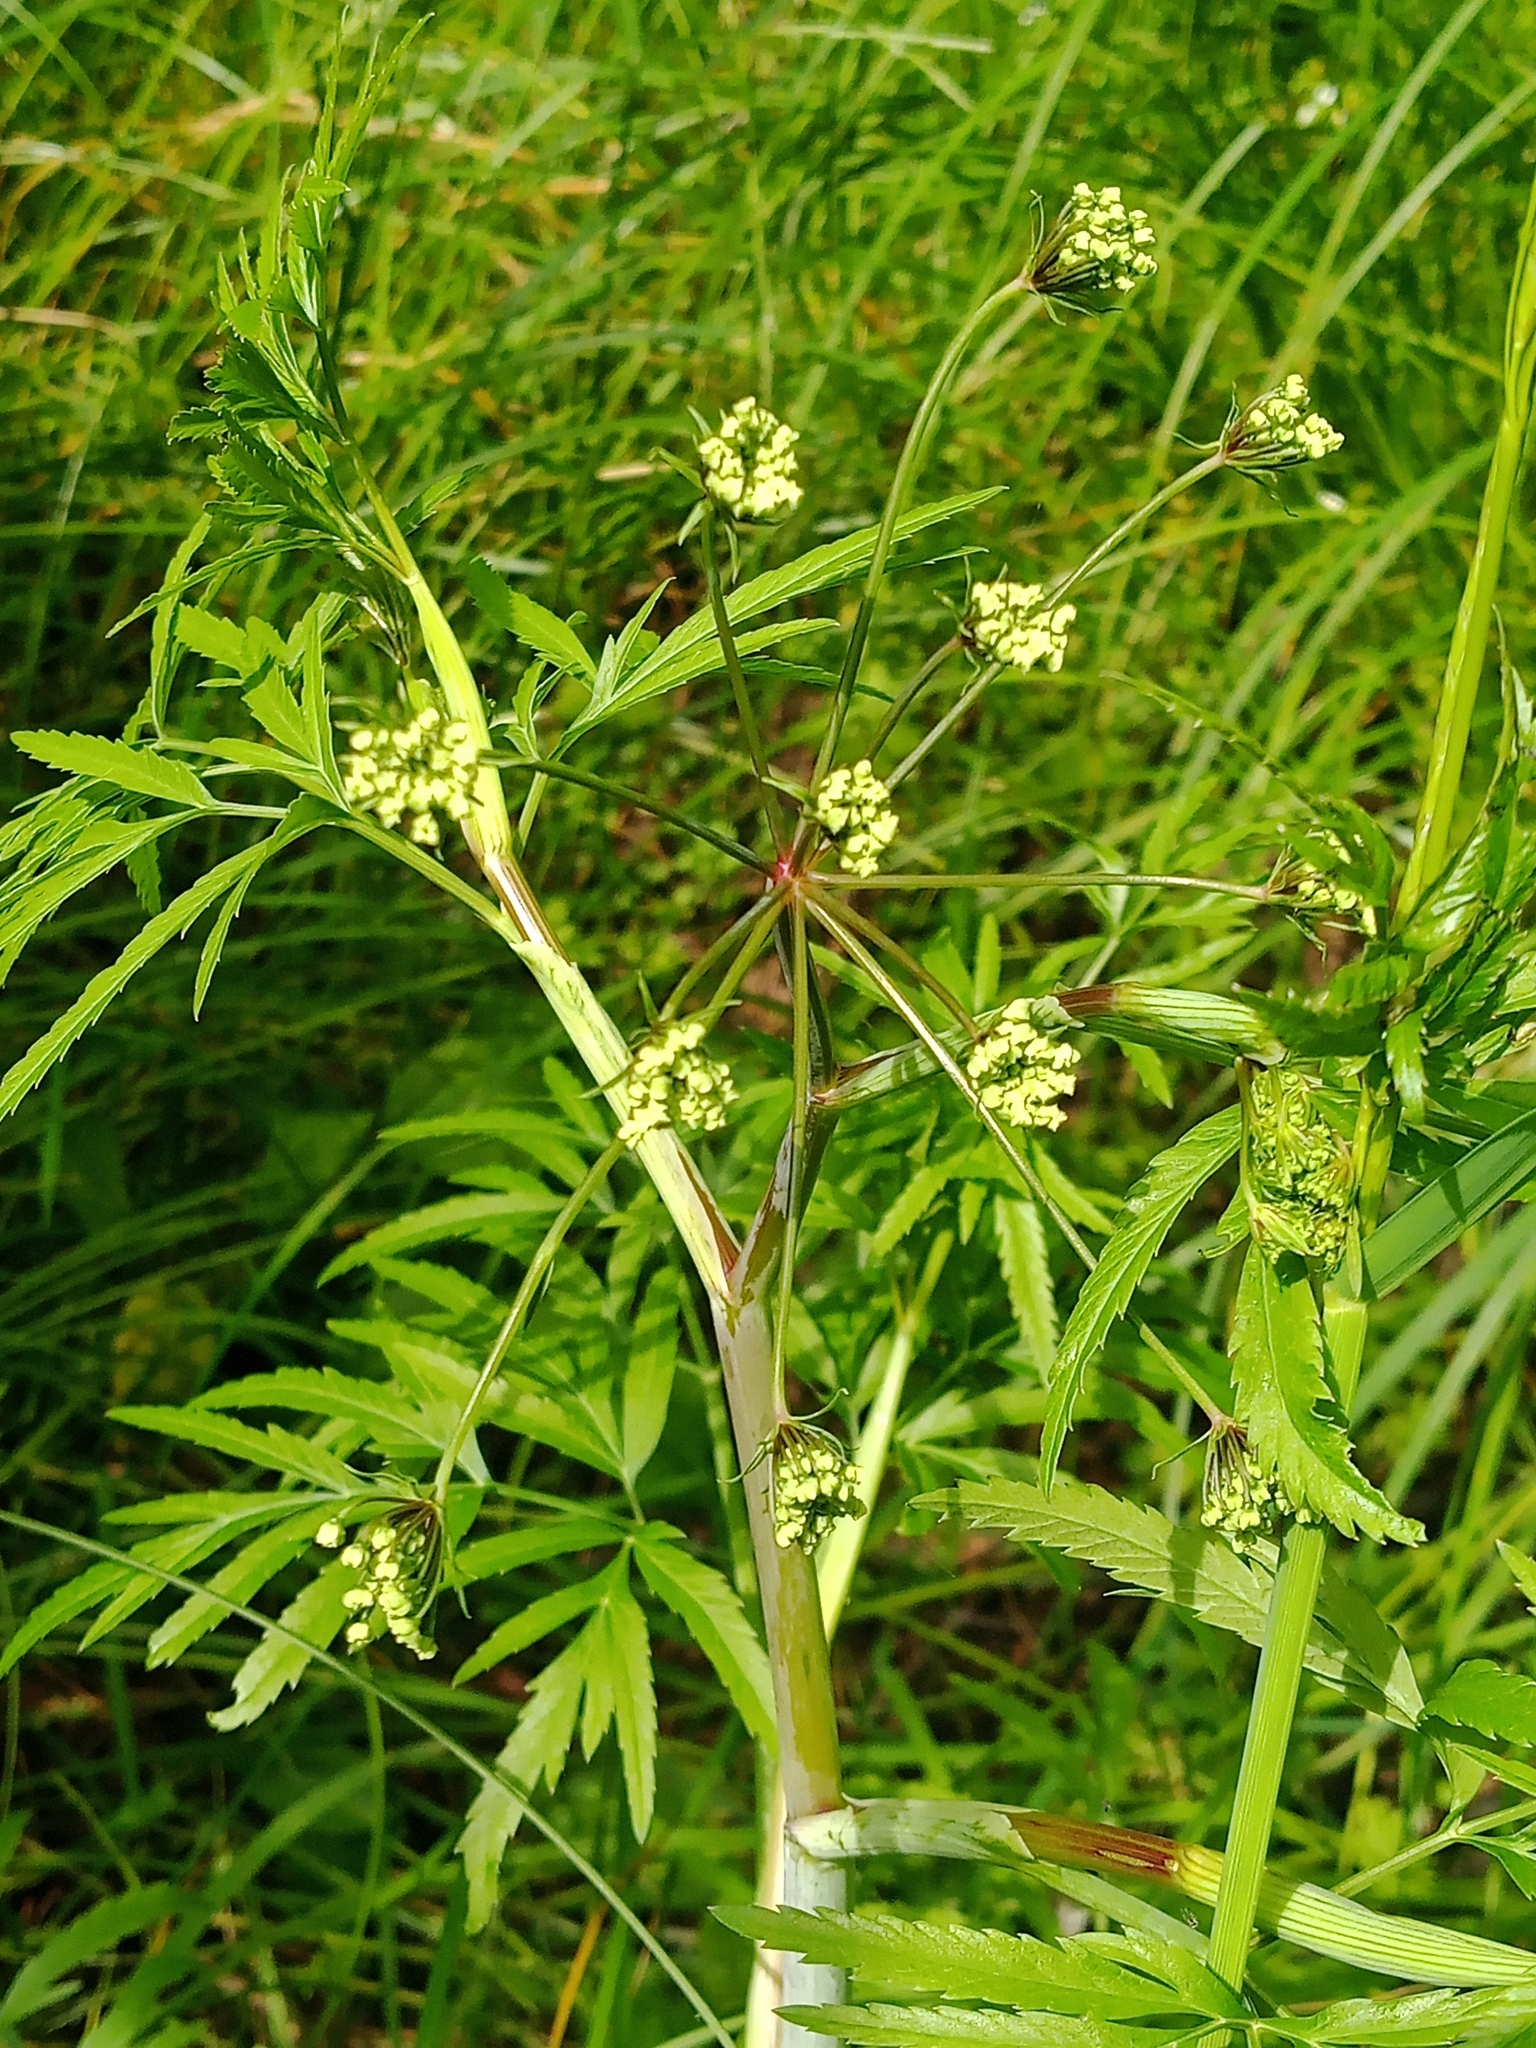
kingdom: Plantae
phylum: Tracheophyta
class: Magnoliopsida
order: Apiales
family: Apiaceae
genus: Cicuta
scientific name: Cicuta virosa
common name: Cowbane
